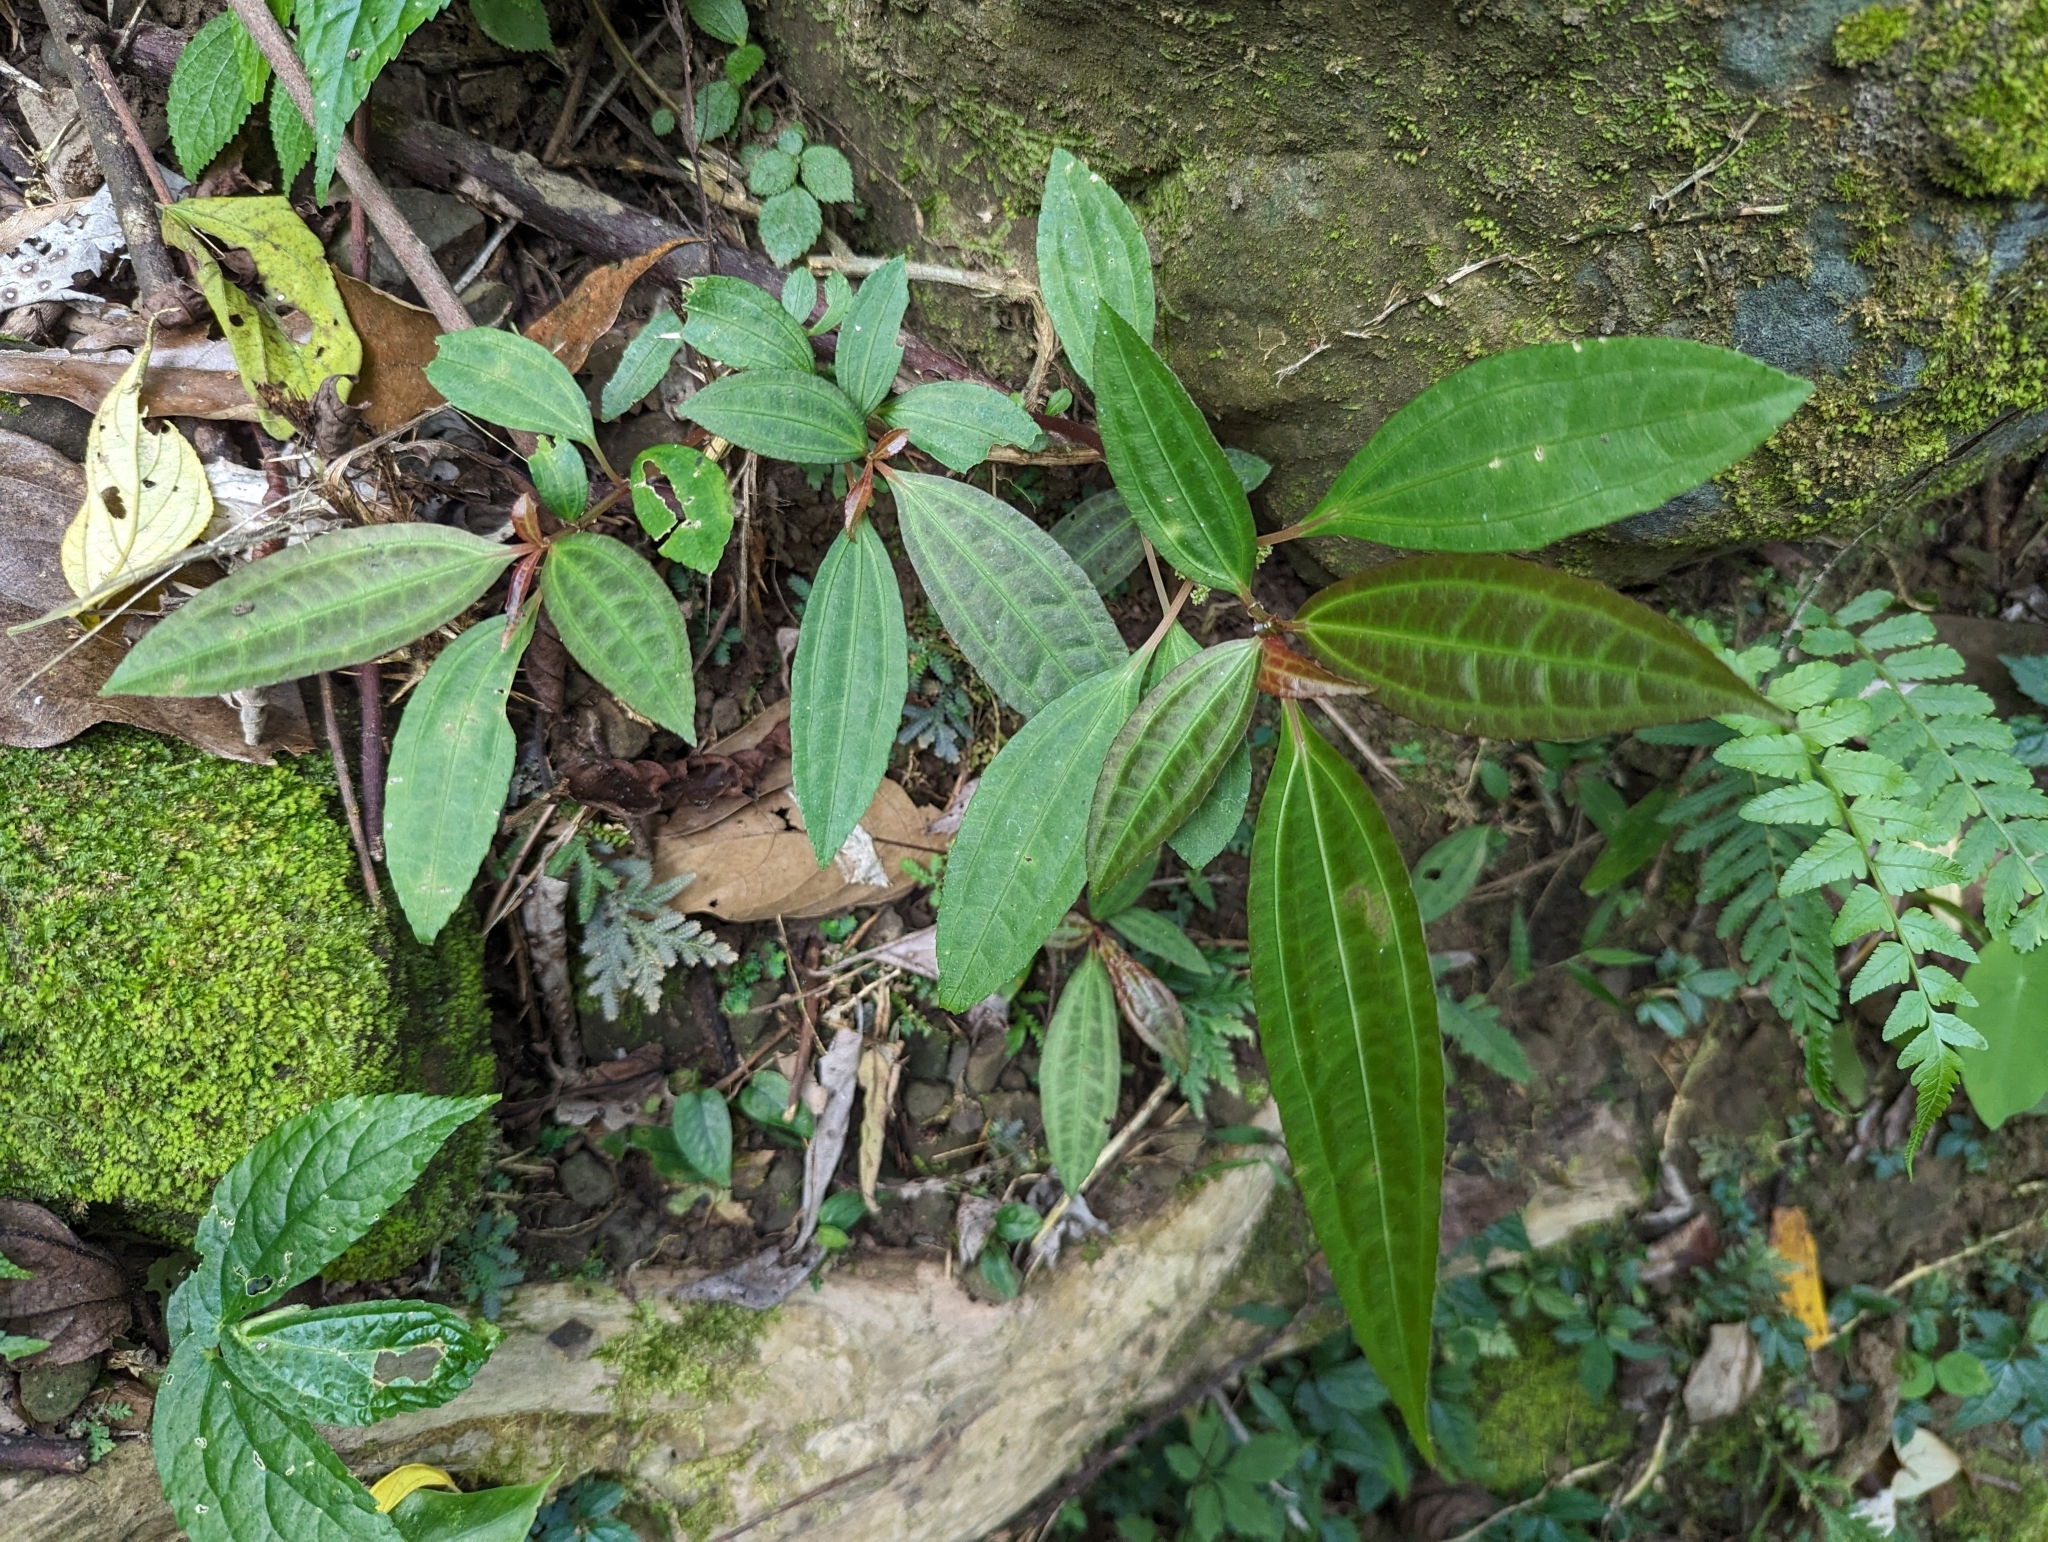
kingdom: Plantae
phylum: Tracheophyta
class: Magnoliopsida
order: Rosales
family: Urticaceae
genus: Pilea
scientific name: Pilea rotundinucula
